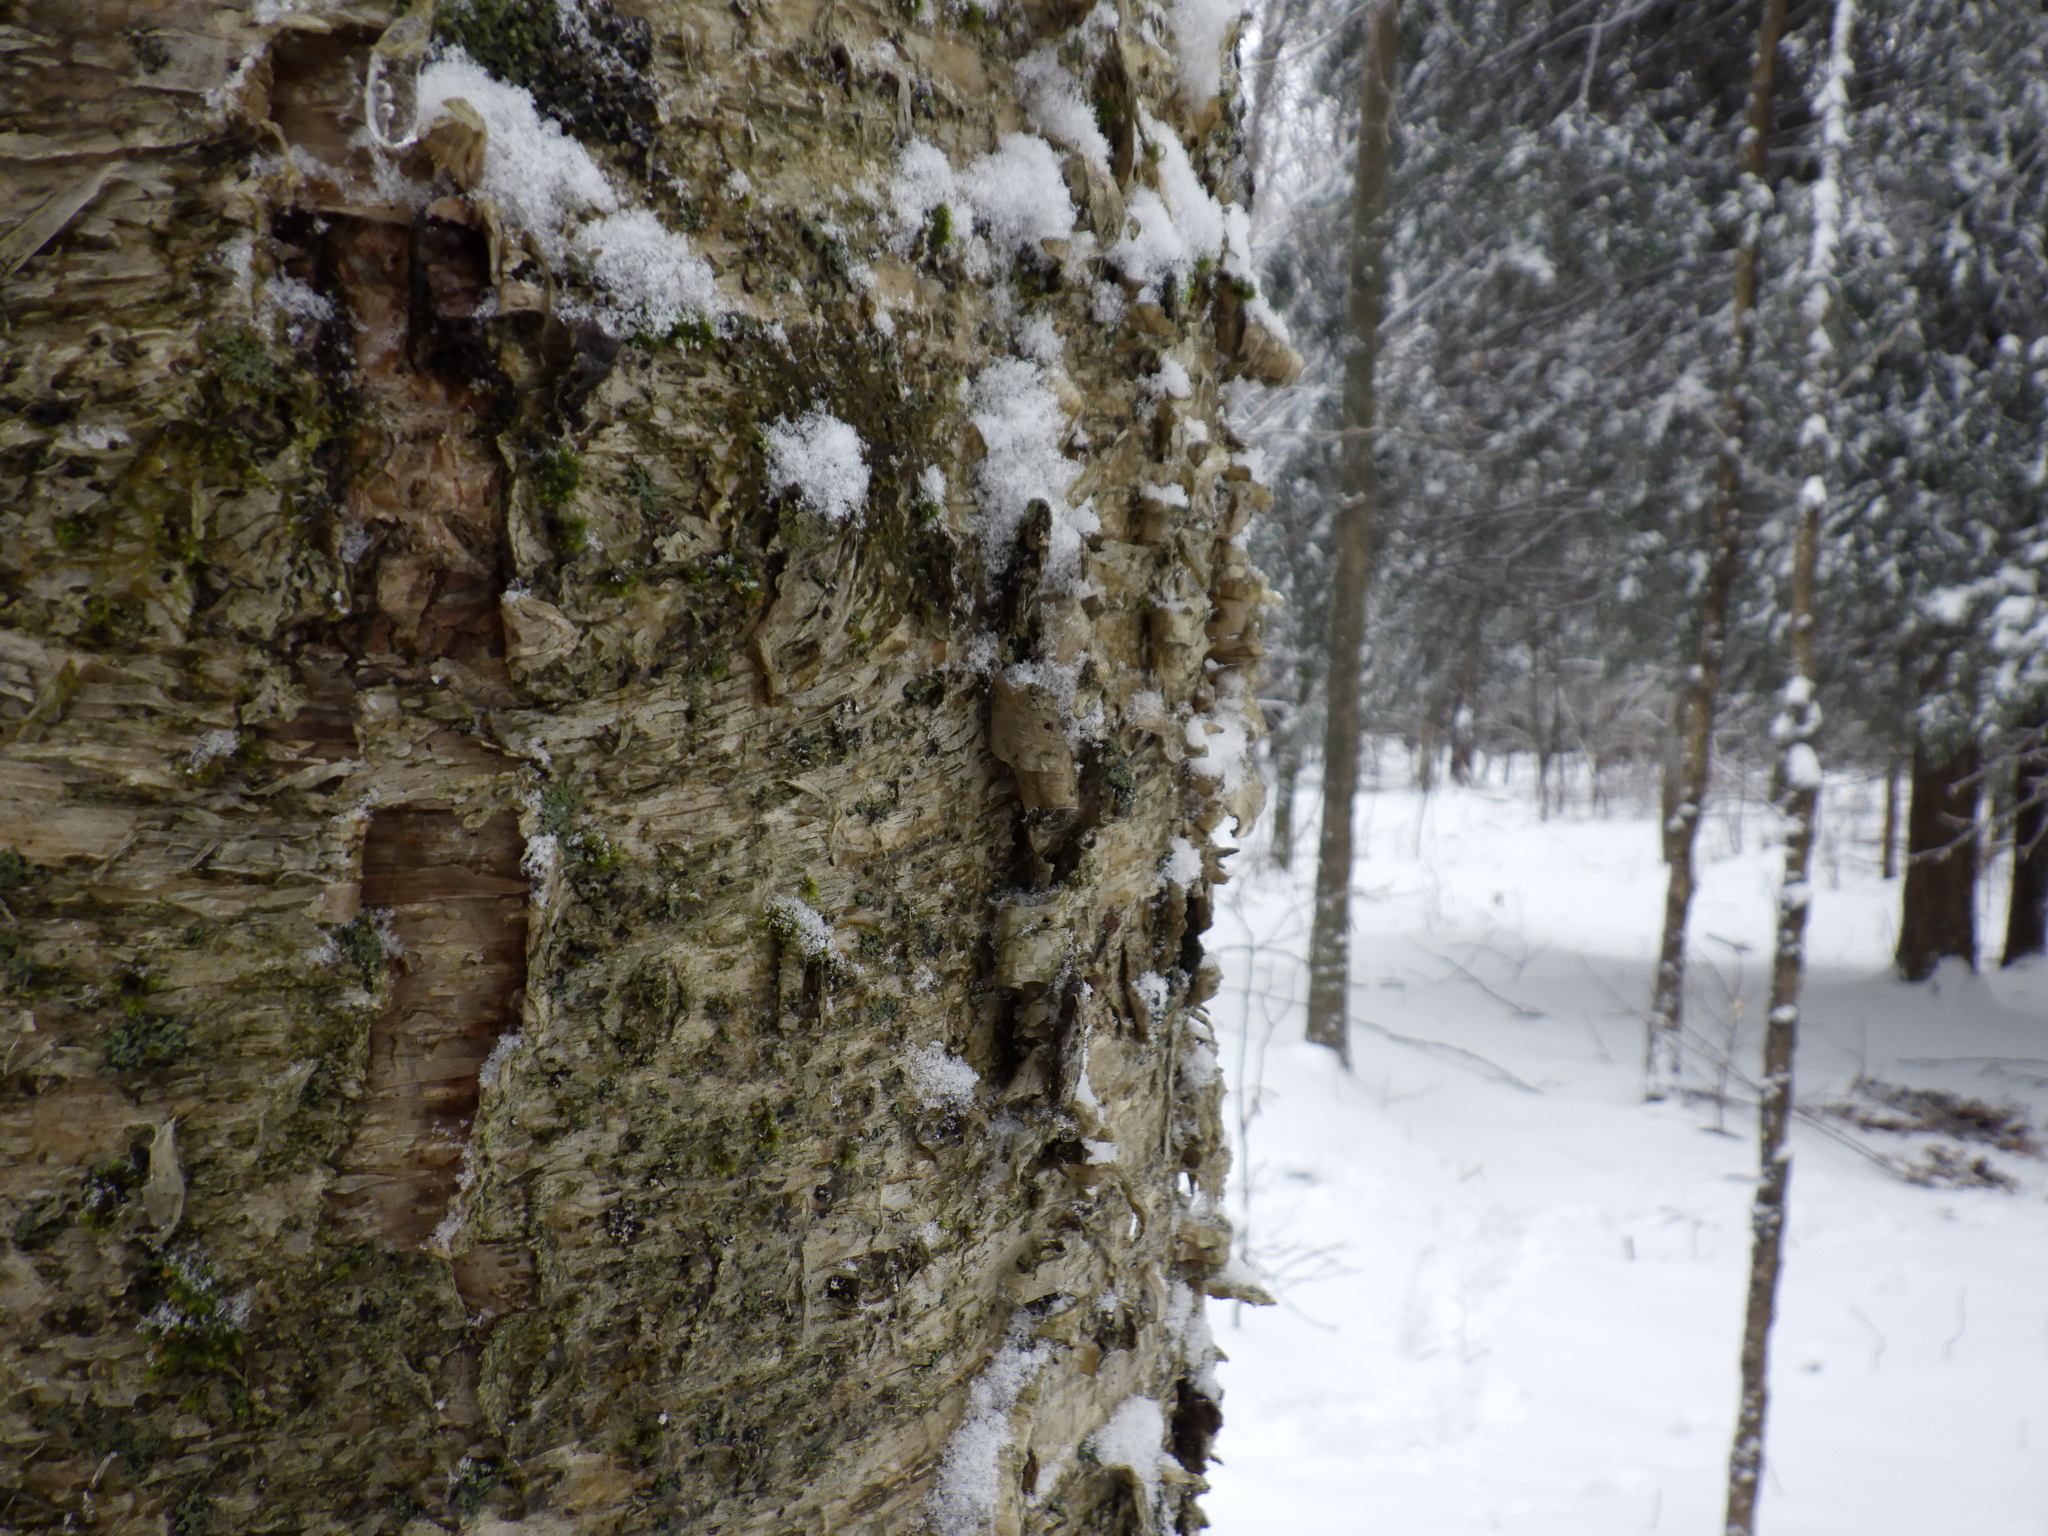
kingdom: Plantae
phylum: Tracheophyta
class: Magnoliopsida
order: Fagales
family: Betulaceae
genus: Betula
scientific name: Betula alleghaniensis
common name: Yellow birch
